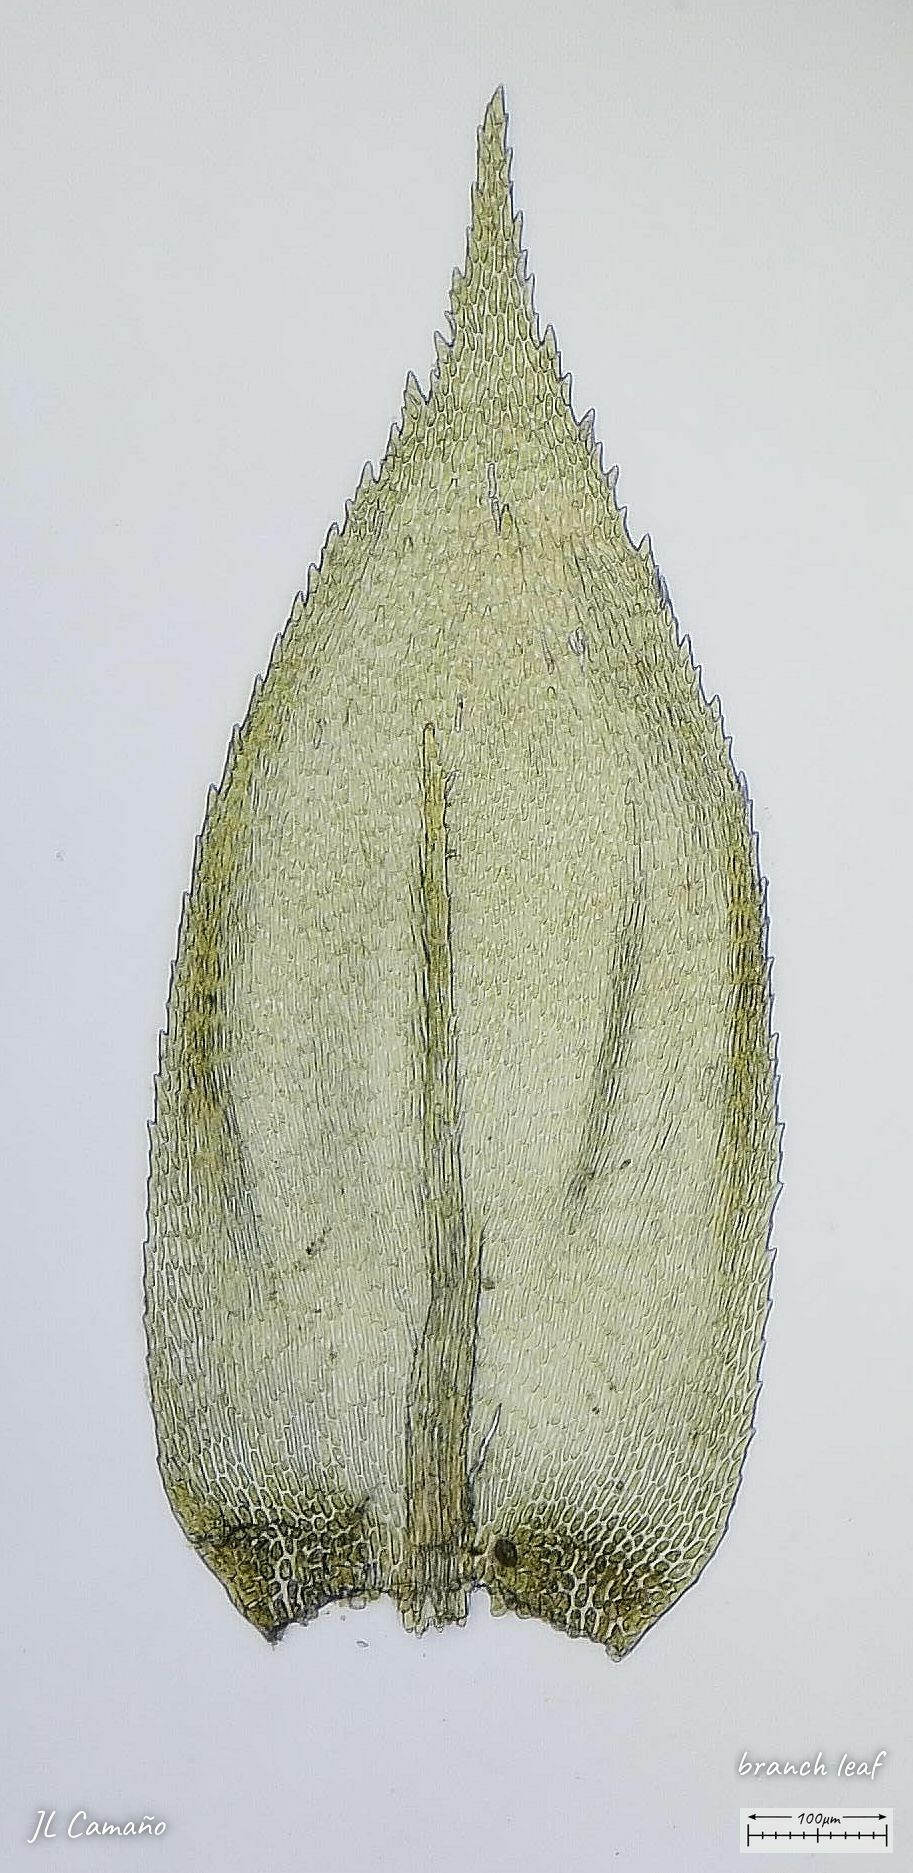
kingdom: Plantae
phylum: Bryophyta
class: Bryopsida
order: Hypnales
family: Lembophyllaceae
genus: Pseudisothecium
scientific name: Pseudisothecium myosuroides
